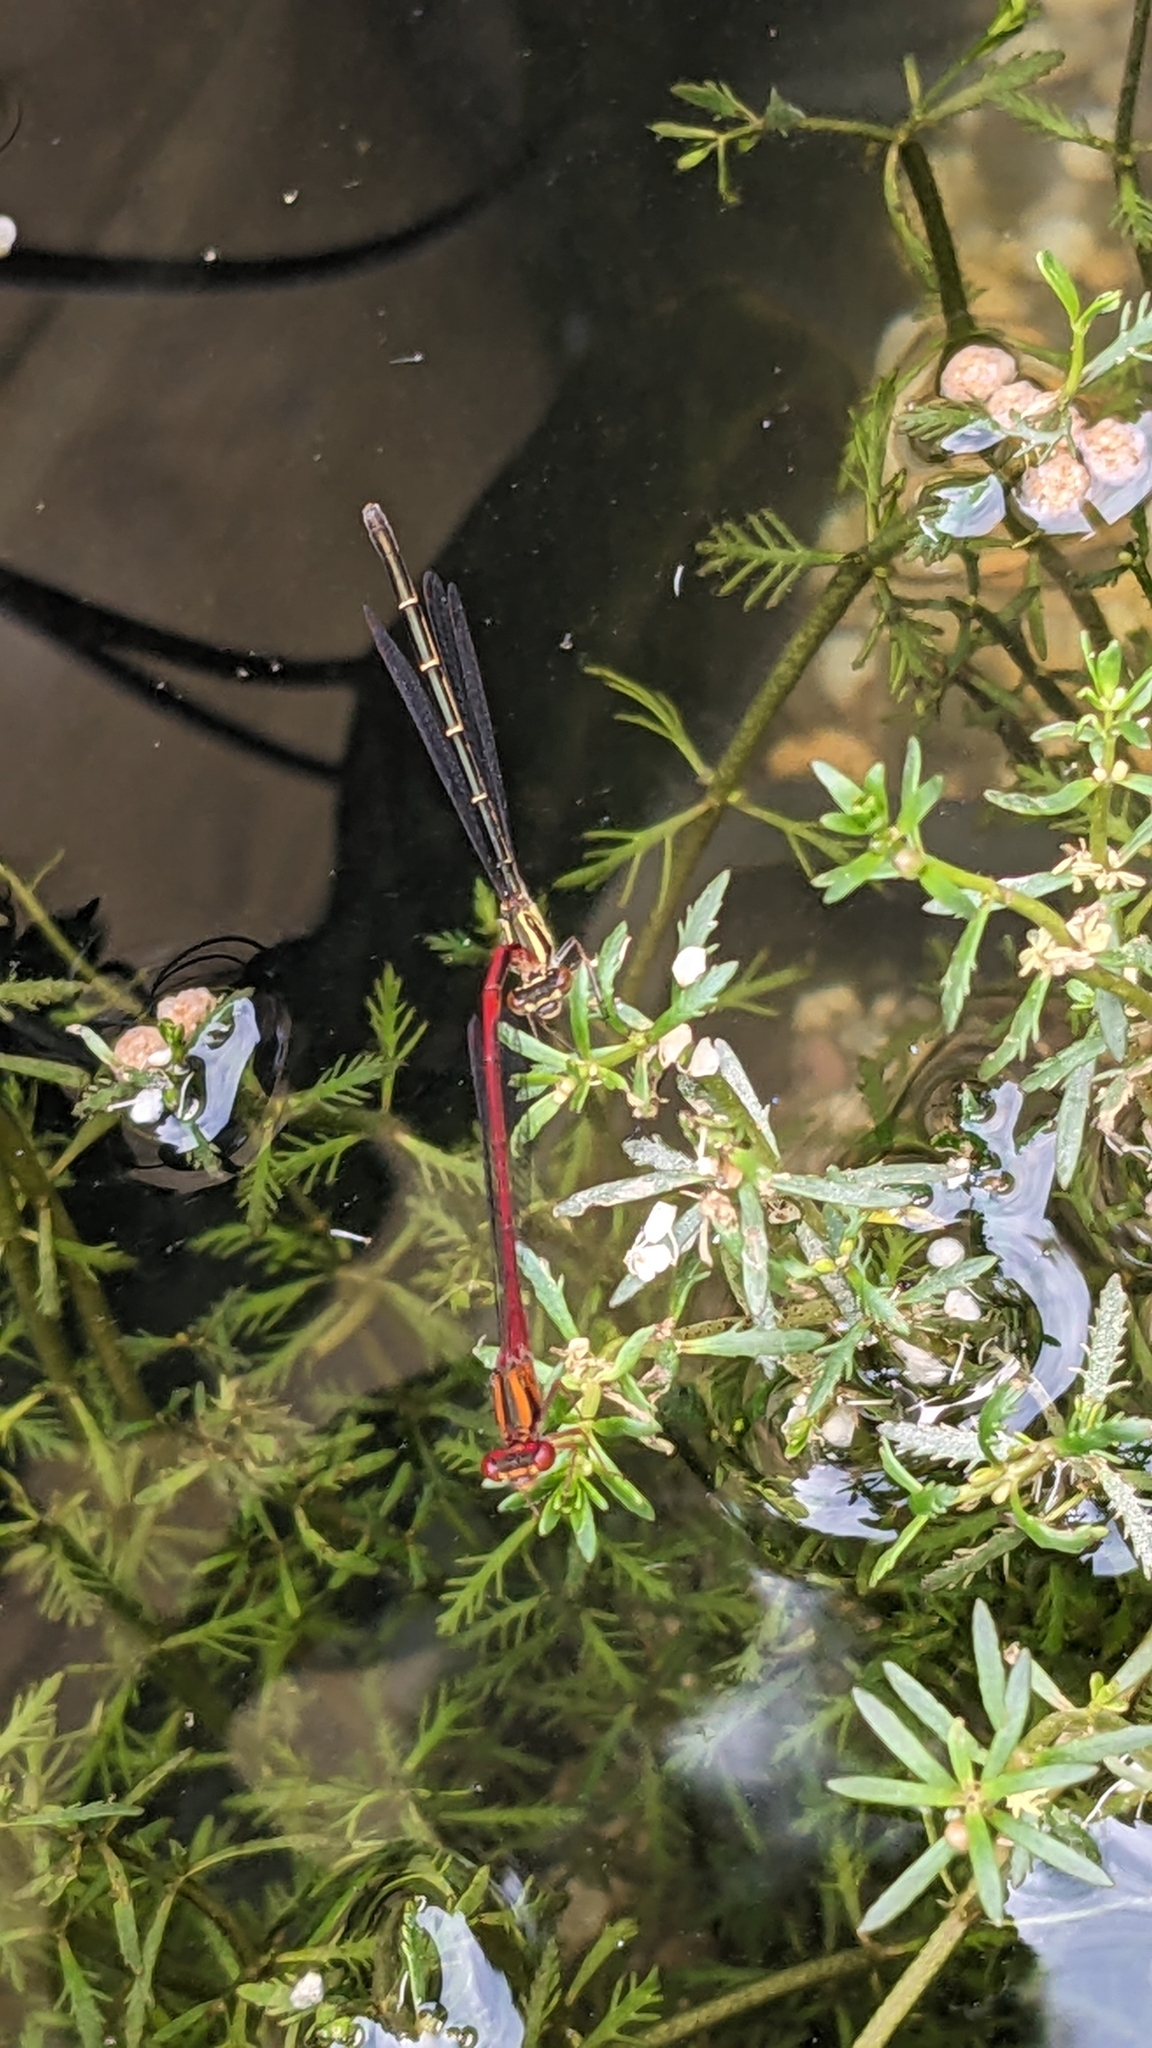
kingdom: Animalia
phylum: Arthropoda
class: Insecta
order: Odonata
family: Coenagrionidae
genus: Xanthocnemis
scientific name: Xanthocnemis zealandica
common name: Common redcoat damselfly
